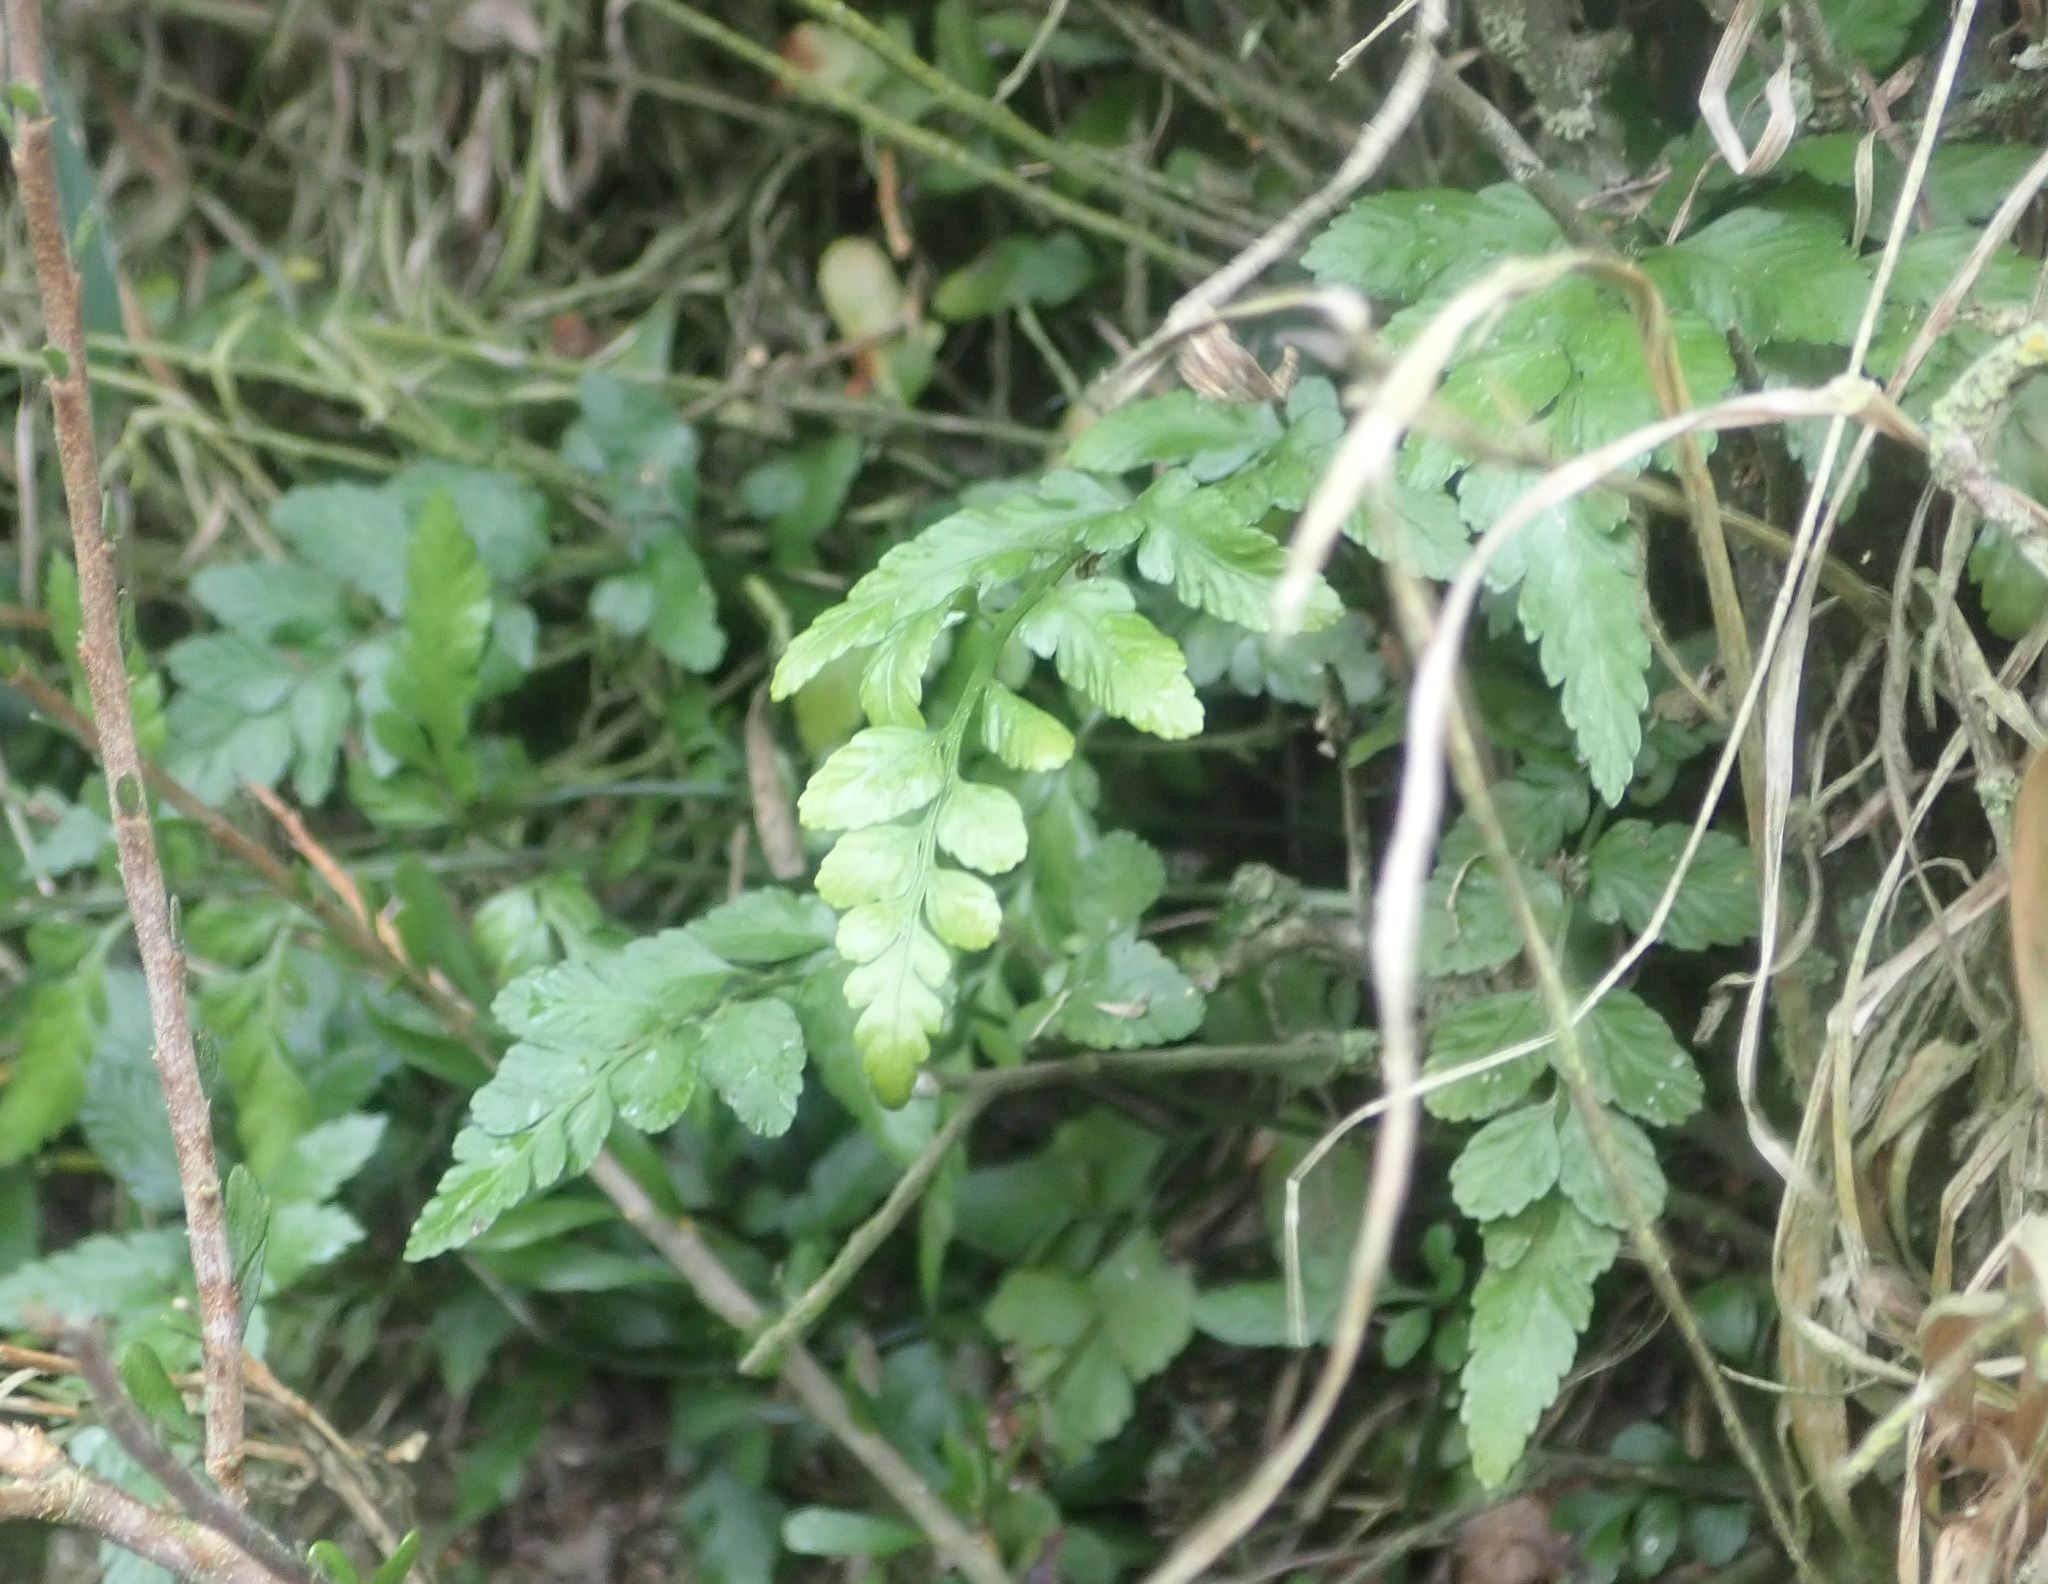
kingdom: Plantae
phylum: Tracheophyta
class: Polypodiopsida
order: Polypodiales
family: Aspleniaceae
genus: Asplenium
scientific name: Asplenium lyallii
